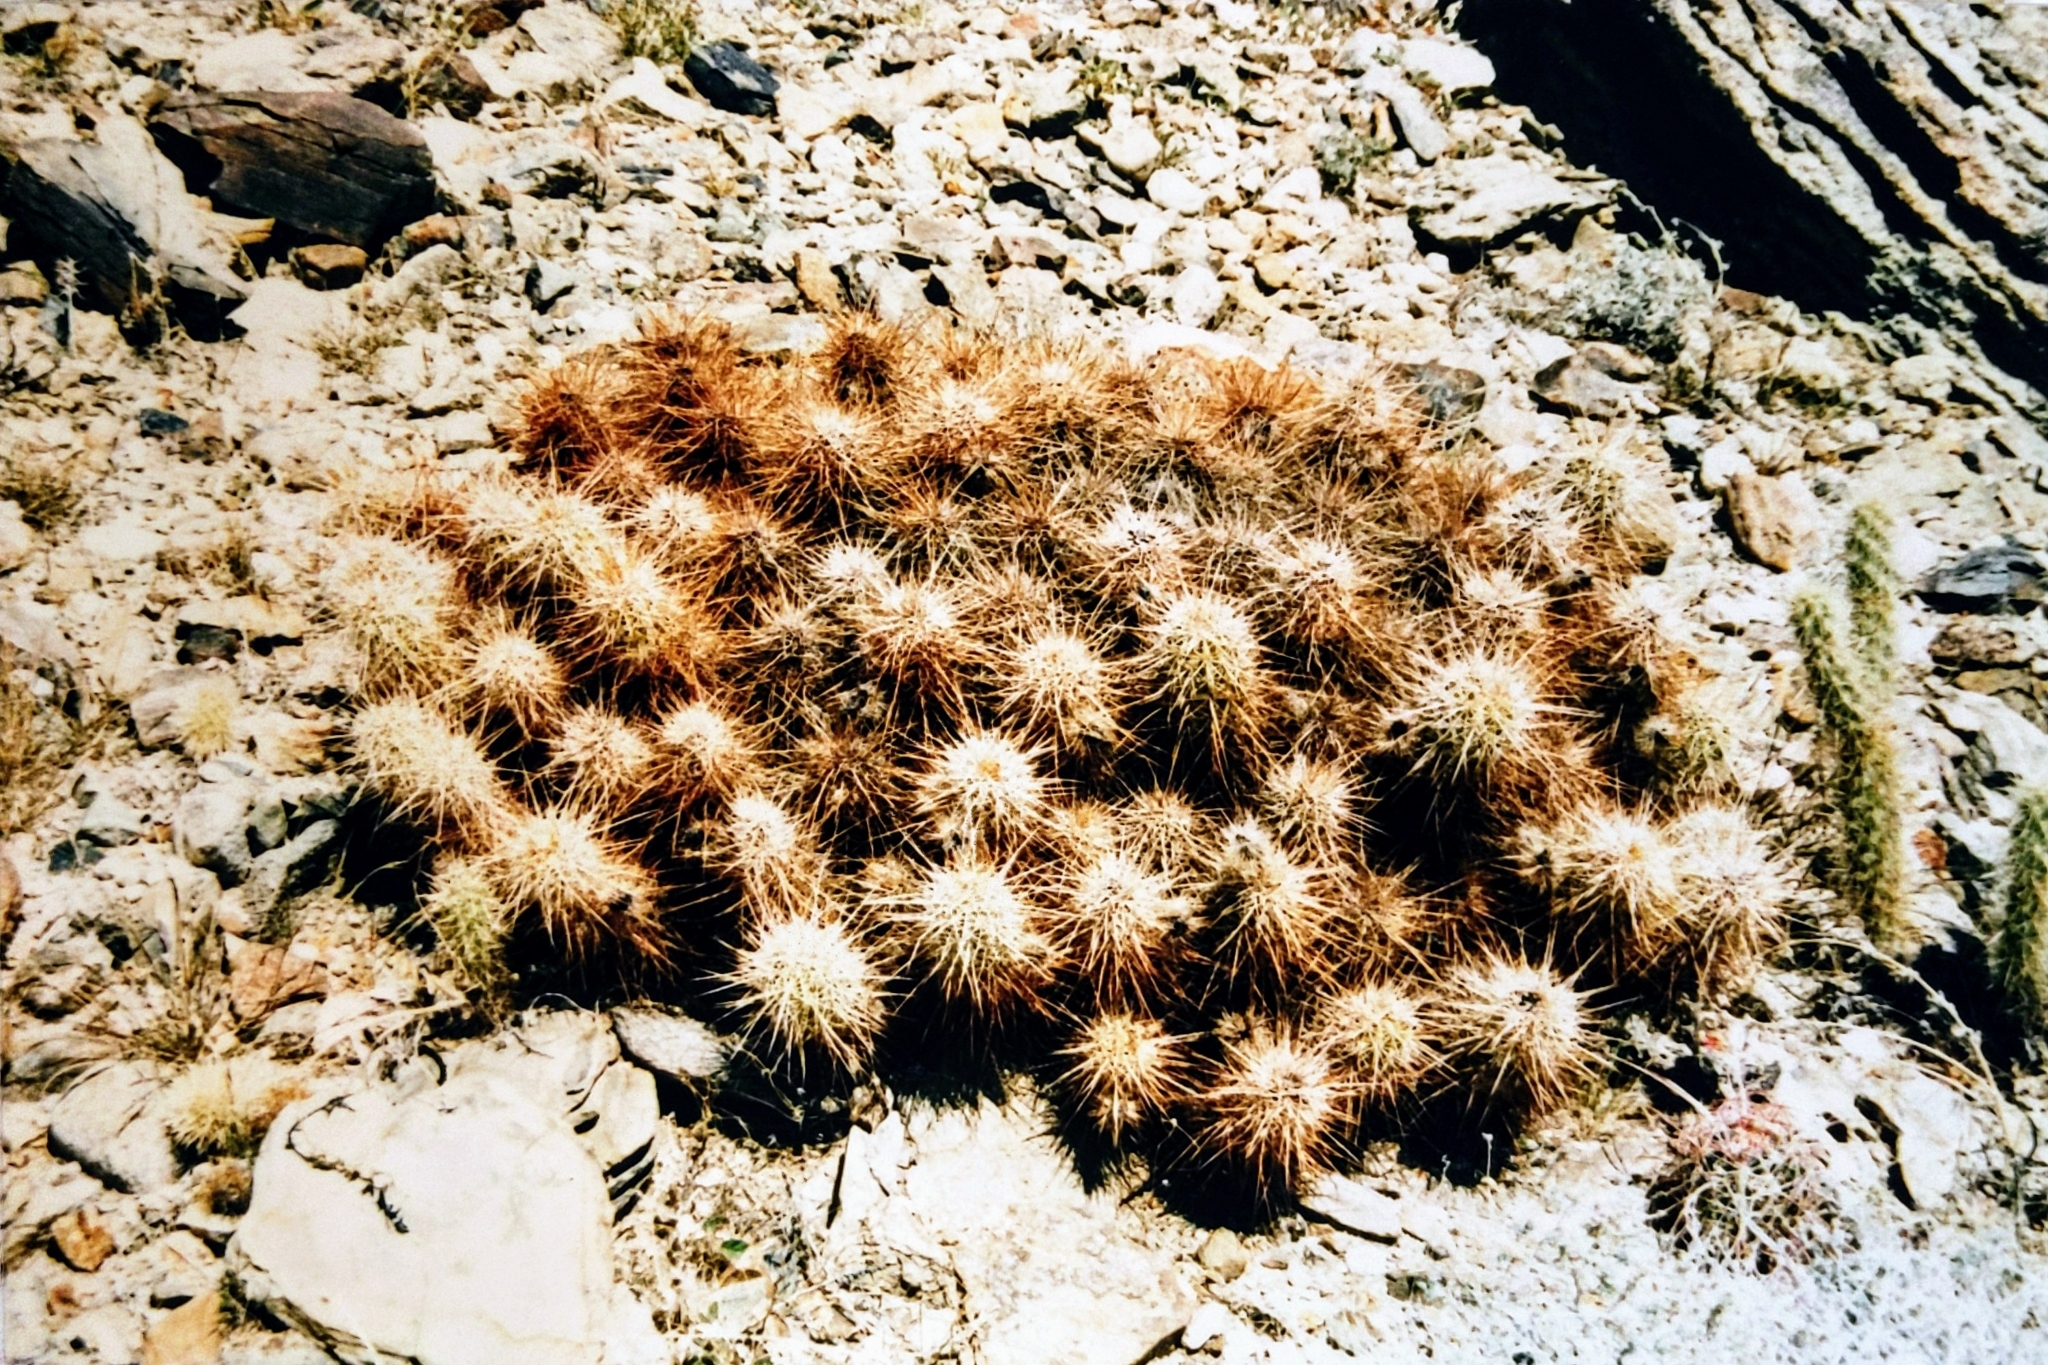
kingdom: Plantae
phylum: Tracheophyta
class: Magnoliopsida
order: Caryophyllales
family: Cactaceae
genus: Echinocereus
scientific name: Echinocereus engelmannii
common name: Engelmann's hedgehog cactus
